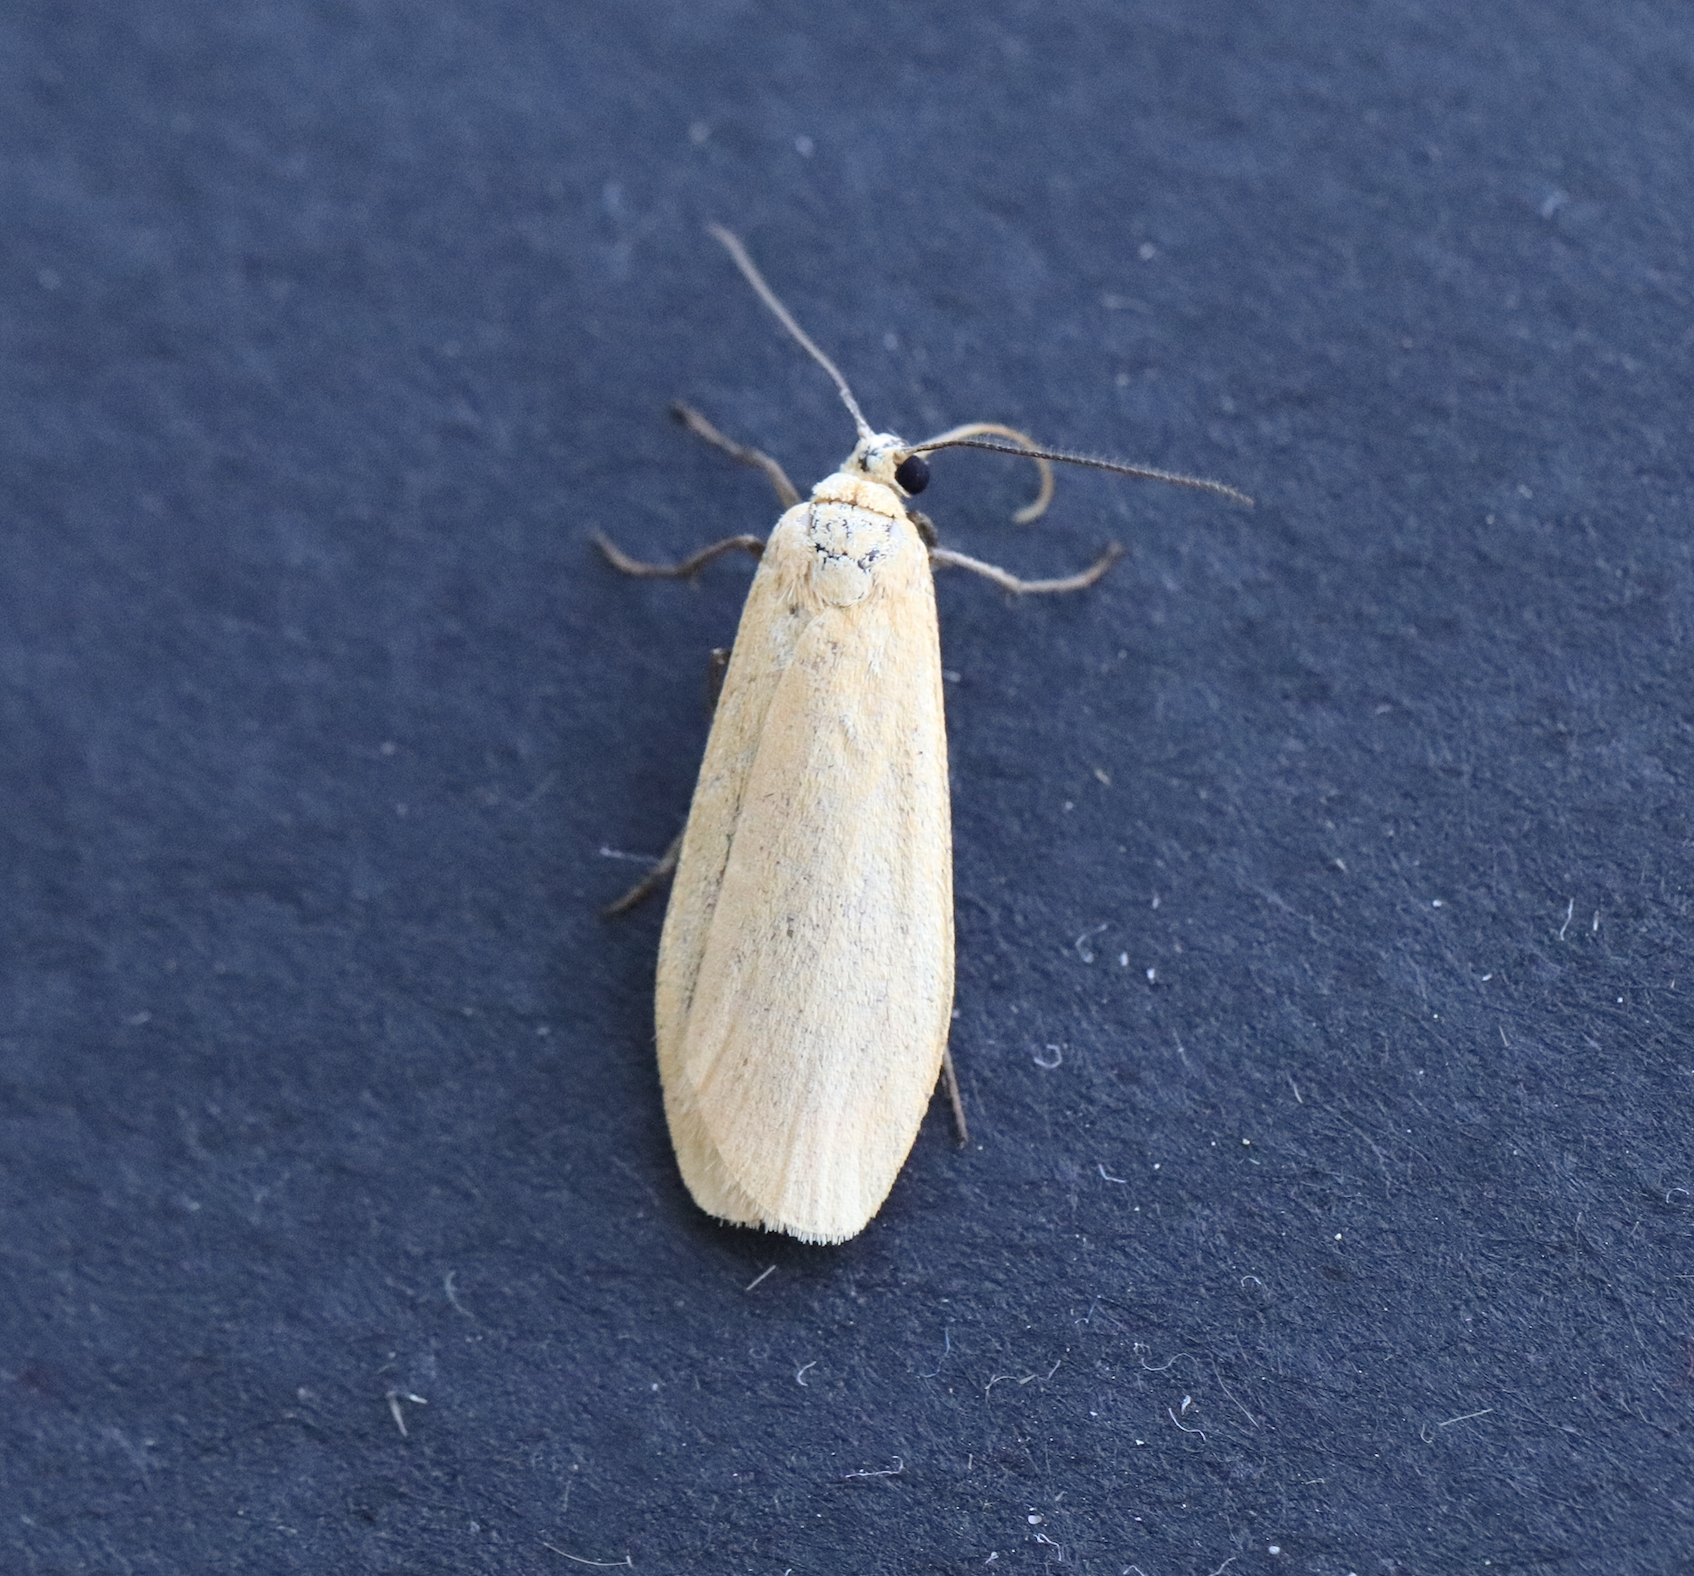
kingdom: Animalia
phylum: Arthropoda
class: Insecta
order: Lepidoptera
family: Erebidae
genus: Wittia
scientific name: Wittia sororcula
